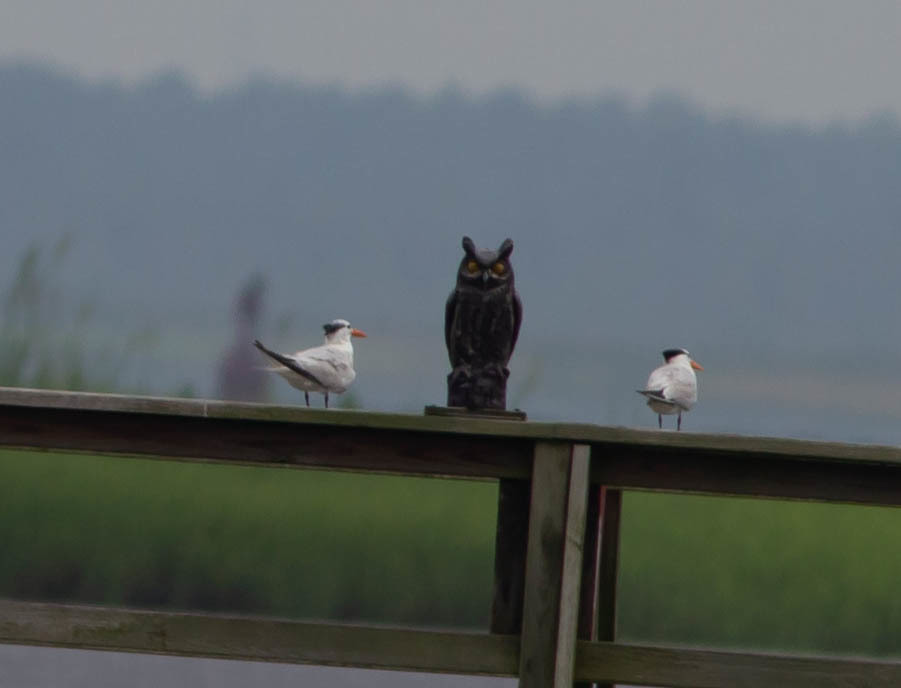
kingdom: Animalia
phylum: Chordata
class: Aves
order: Charadriiformes
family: Laridae
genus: Thalasseus
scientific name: Thalasseus maximus
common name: Royal tern
